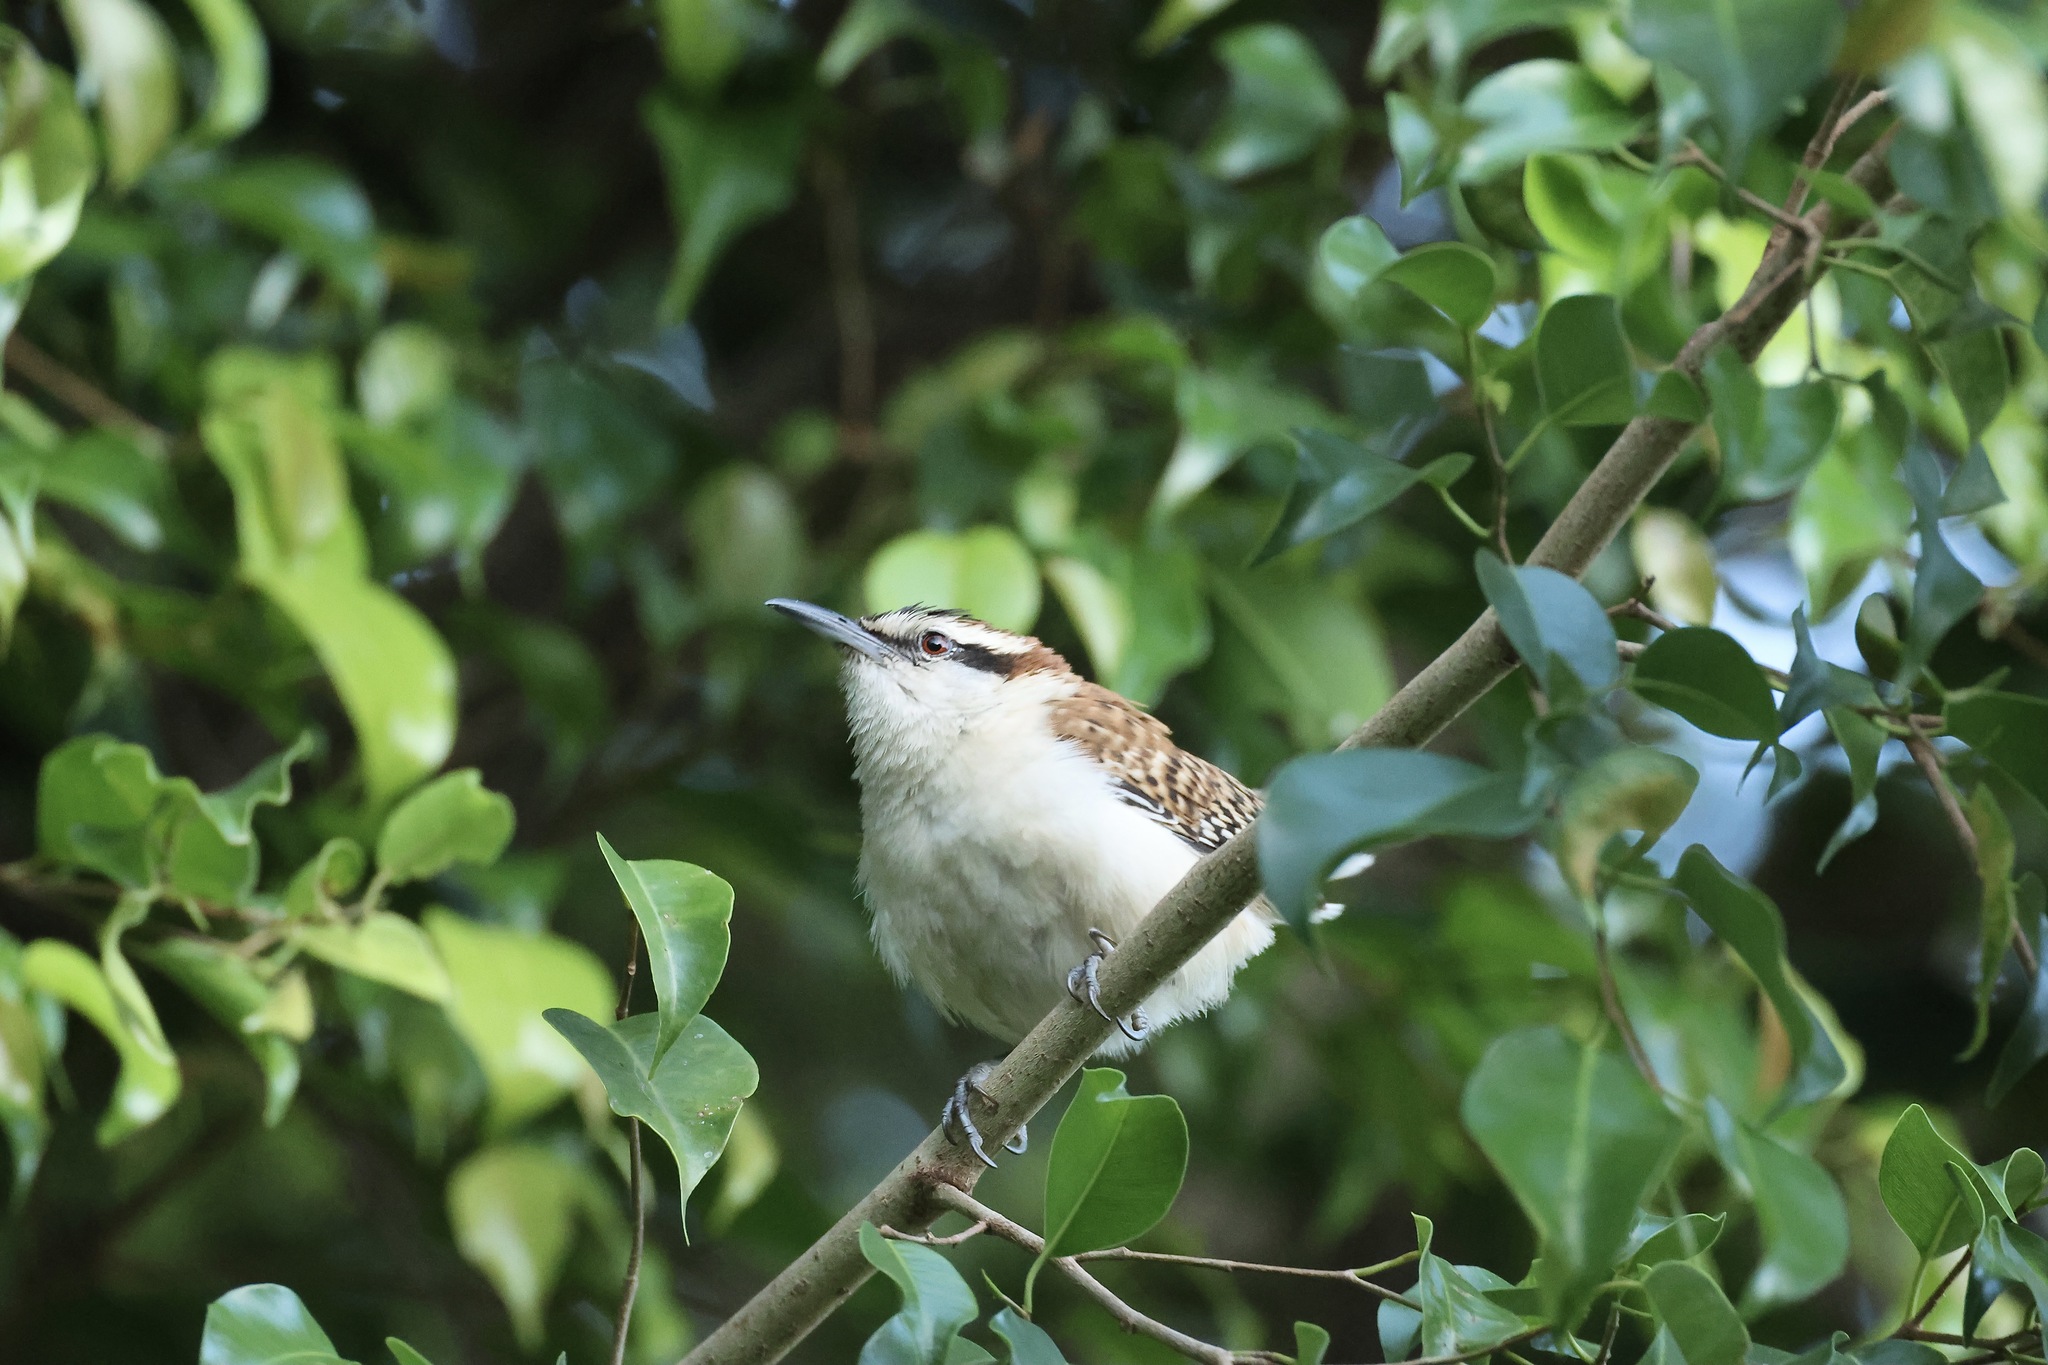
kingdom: Animalia
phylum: Chordata
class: Aves
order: Passeriformes
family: Troglodytidae
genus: Campylorhynchus
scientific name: Campylorhynchus rufinucha
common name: Rufous-naped wren
